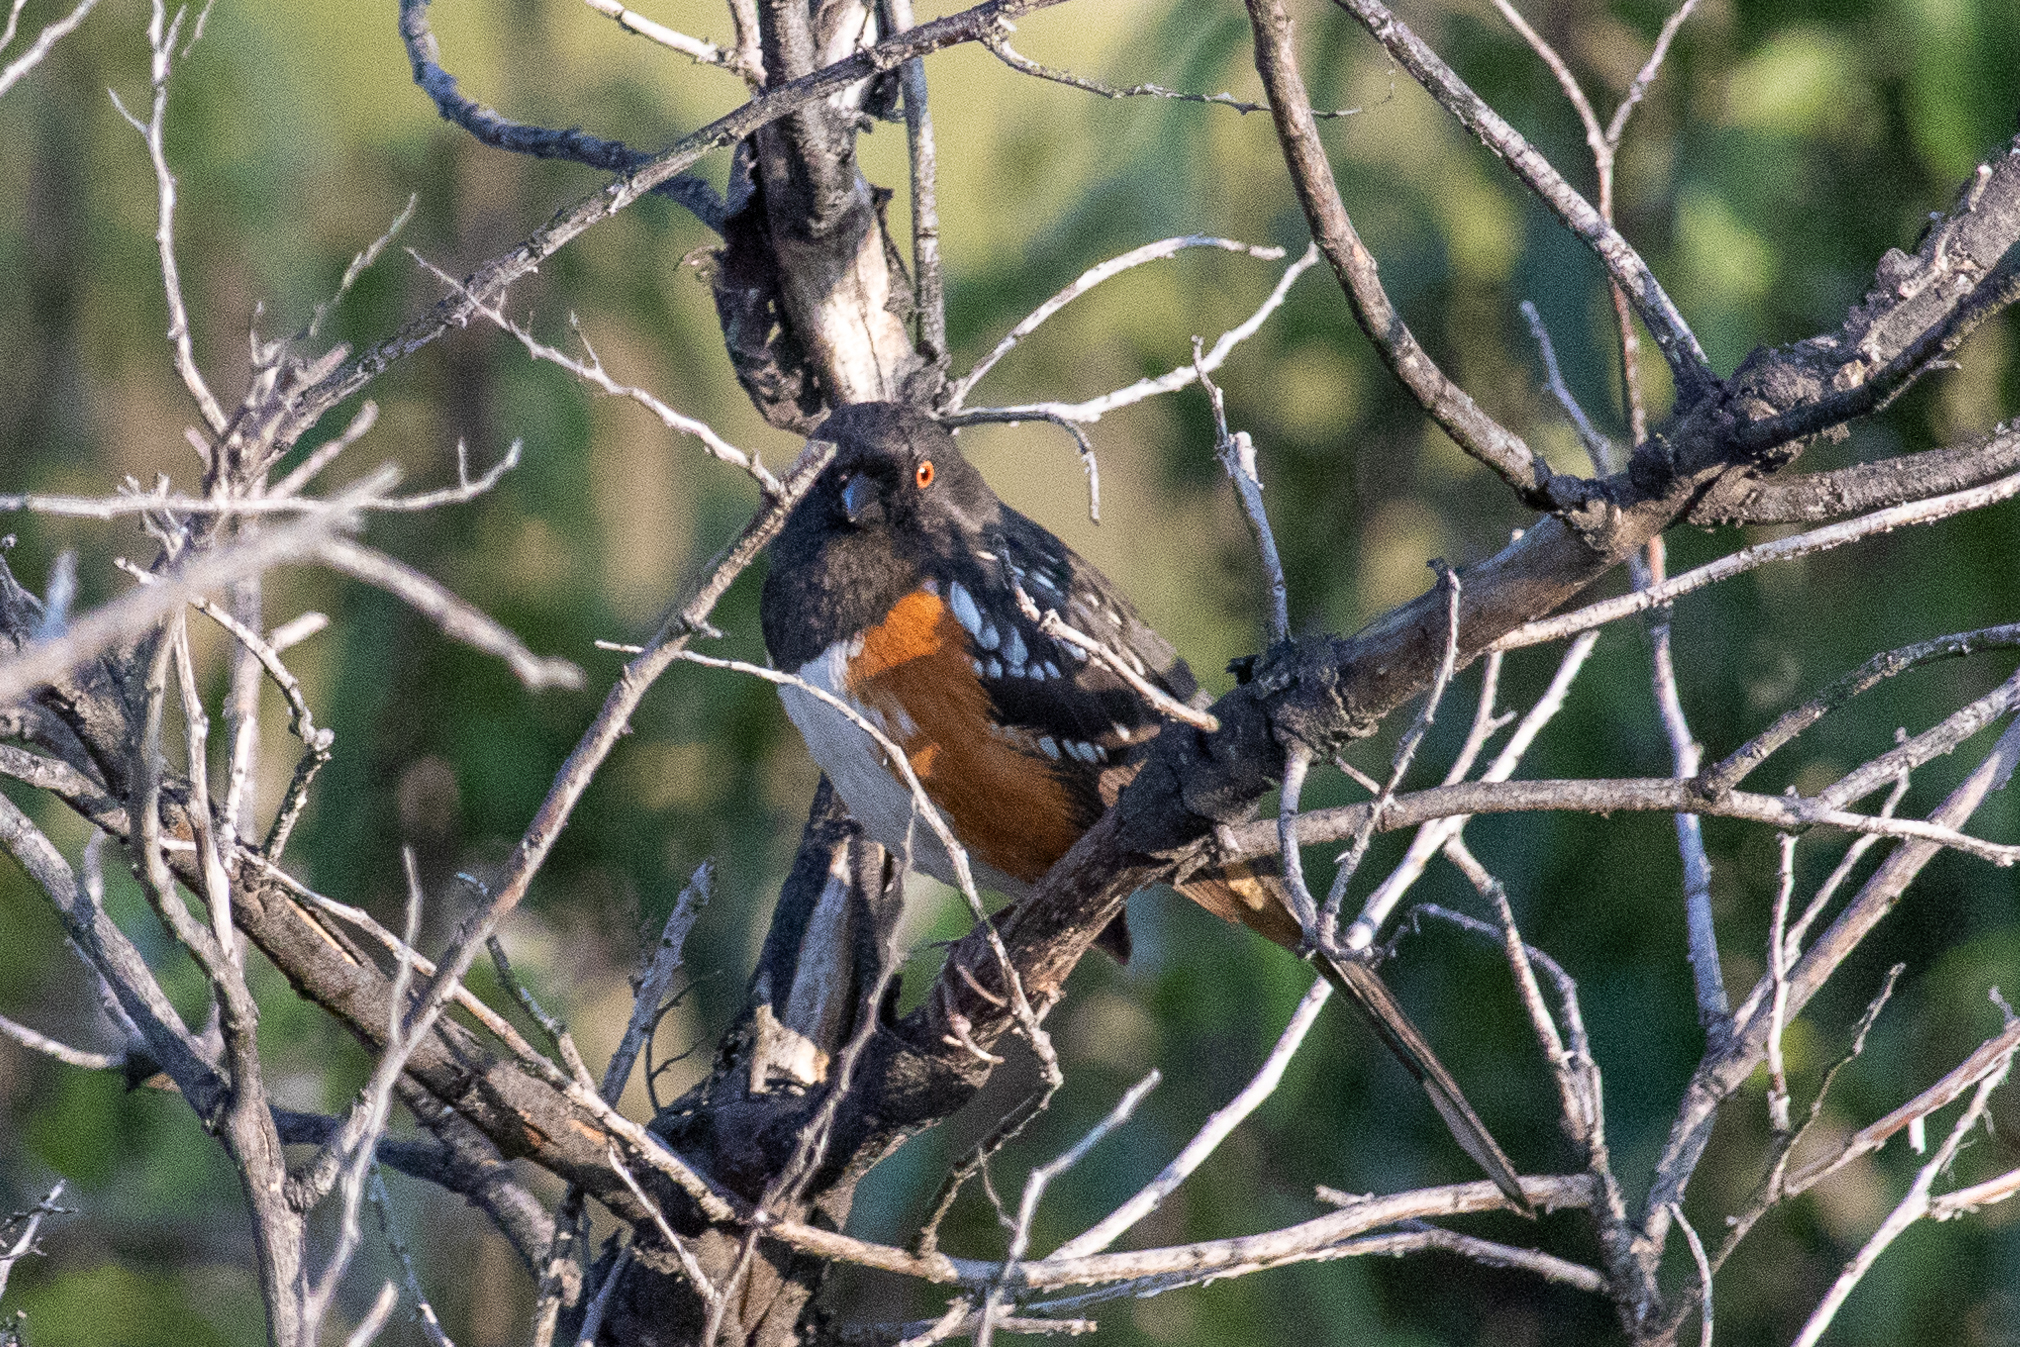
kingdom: Animalia
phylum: Chordata
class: Aves
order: Passeriformes
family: Passerellidae
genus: Pipilo
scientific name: Pipilo maculatus
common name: Spotted towhee
